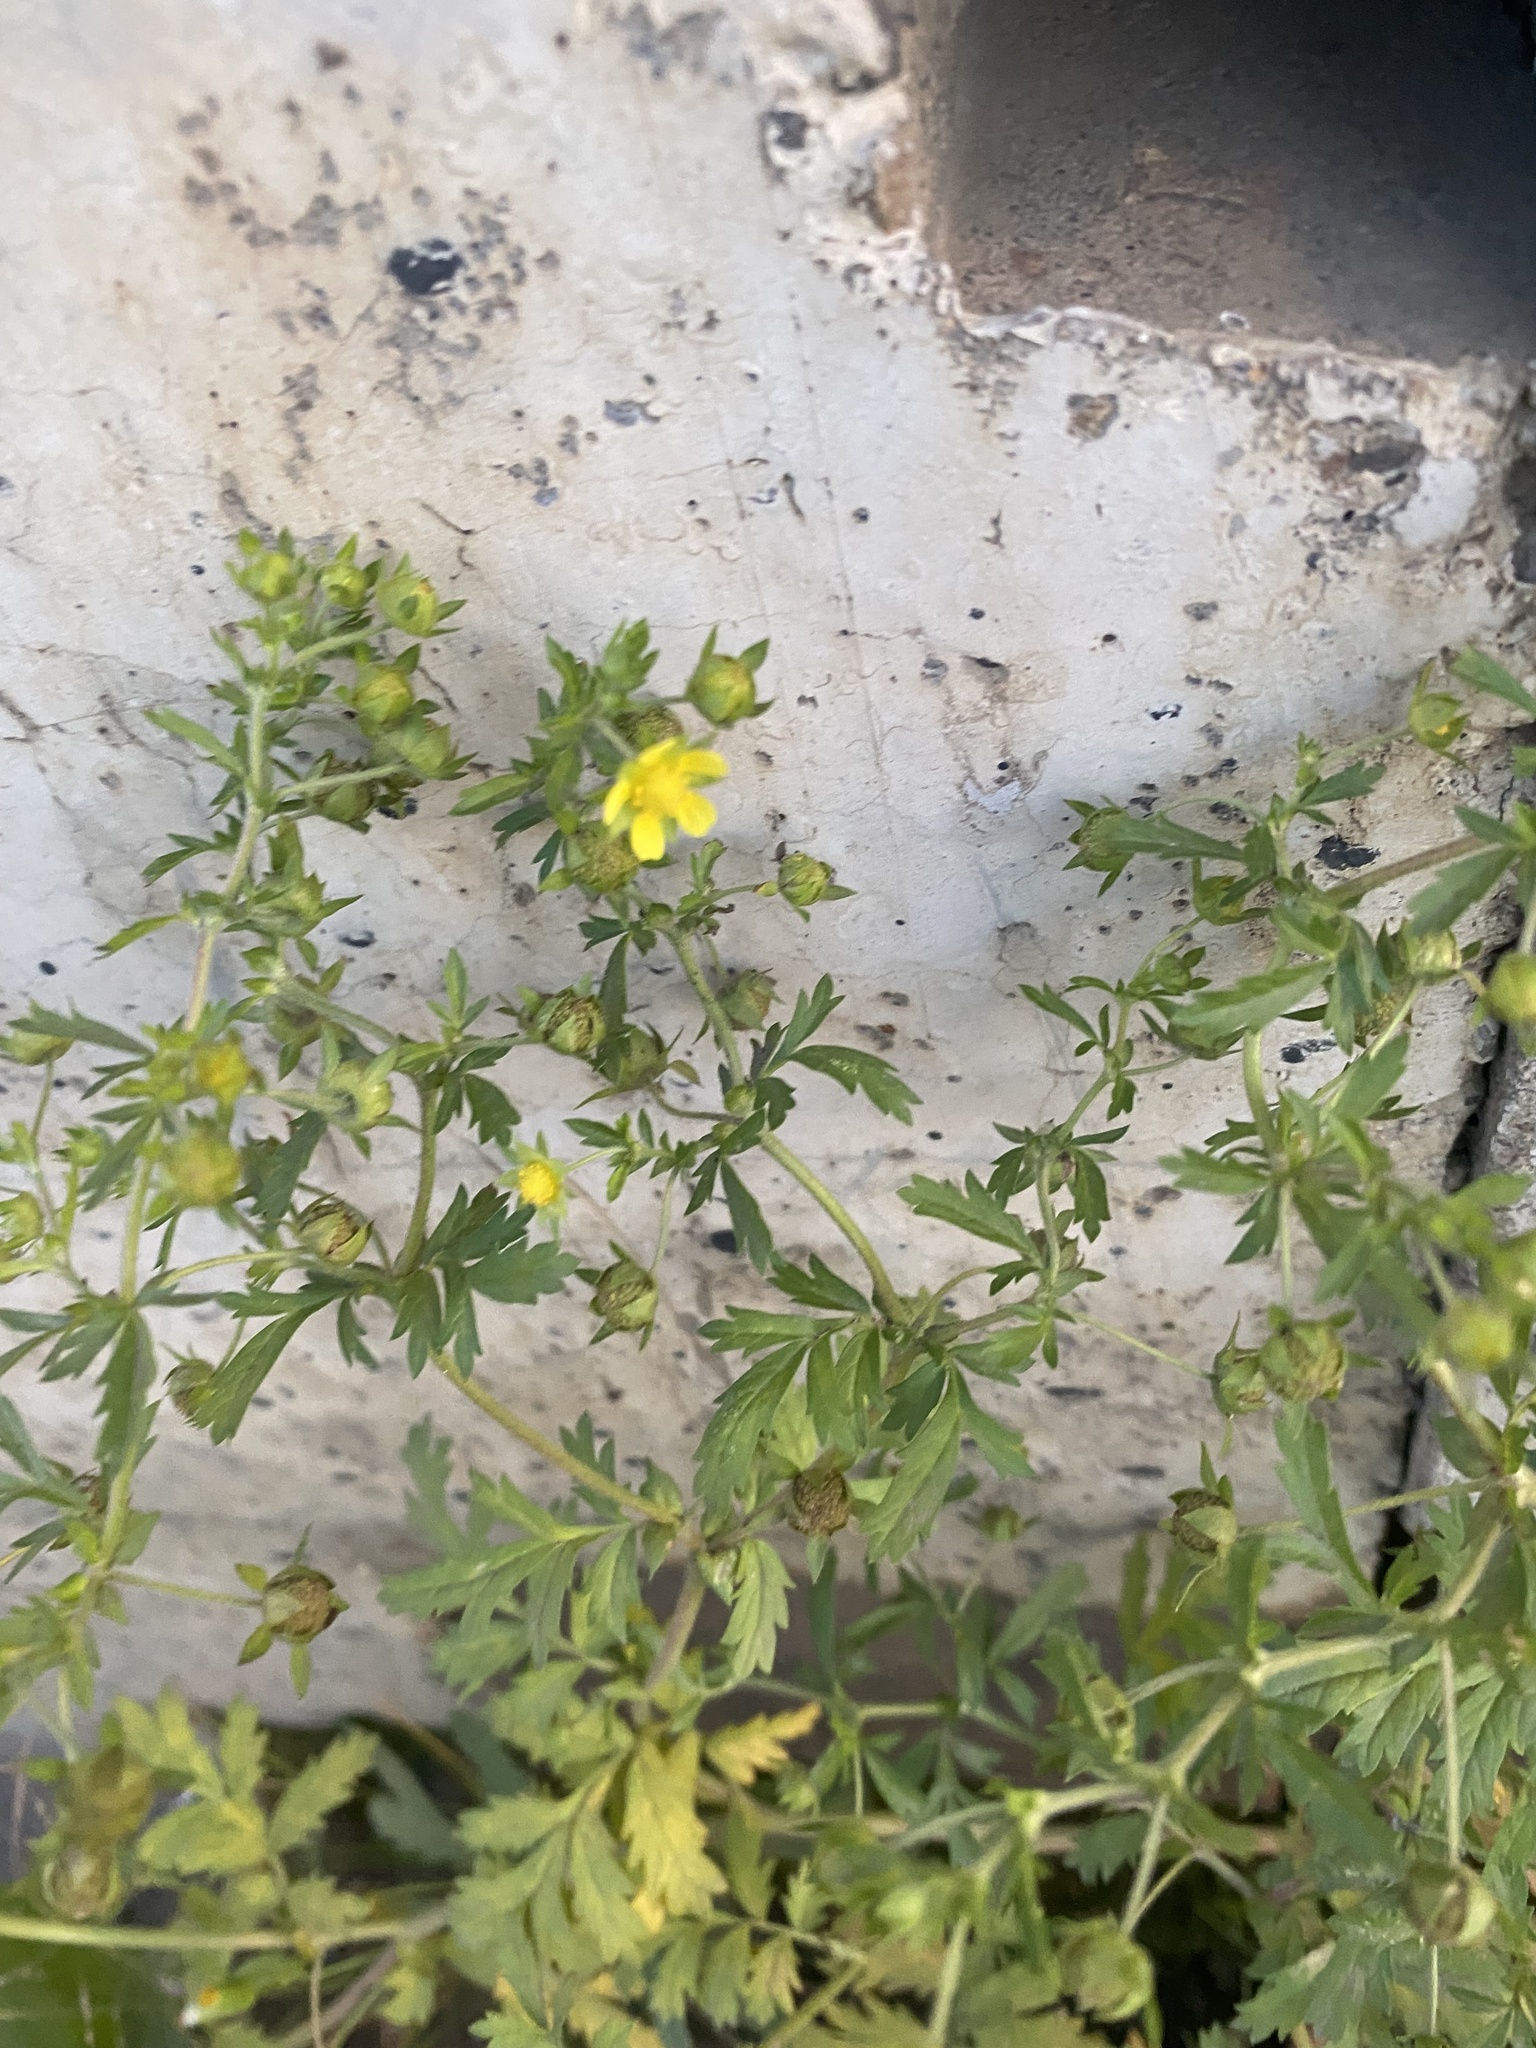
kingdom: Plantae
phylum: Tracheophyta
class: Magnoliopsida
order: Rosales
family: Rosaceae
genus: Potentilla
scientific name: Potentilla supina
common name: Prostrate cinquefoil
